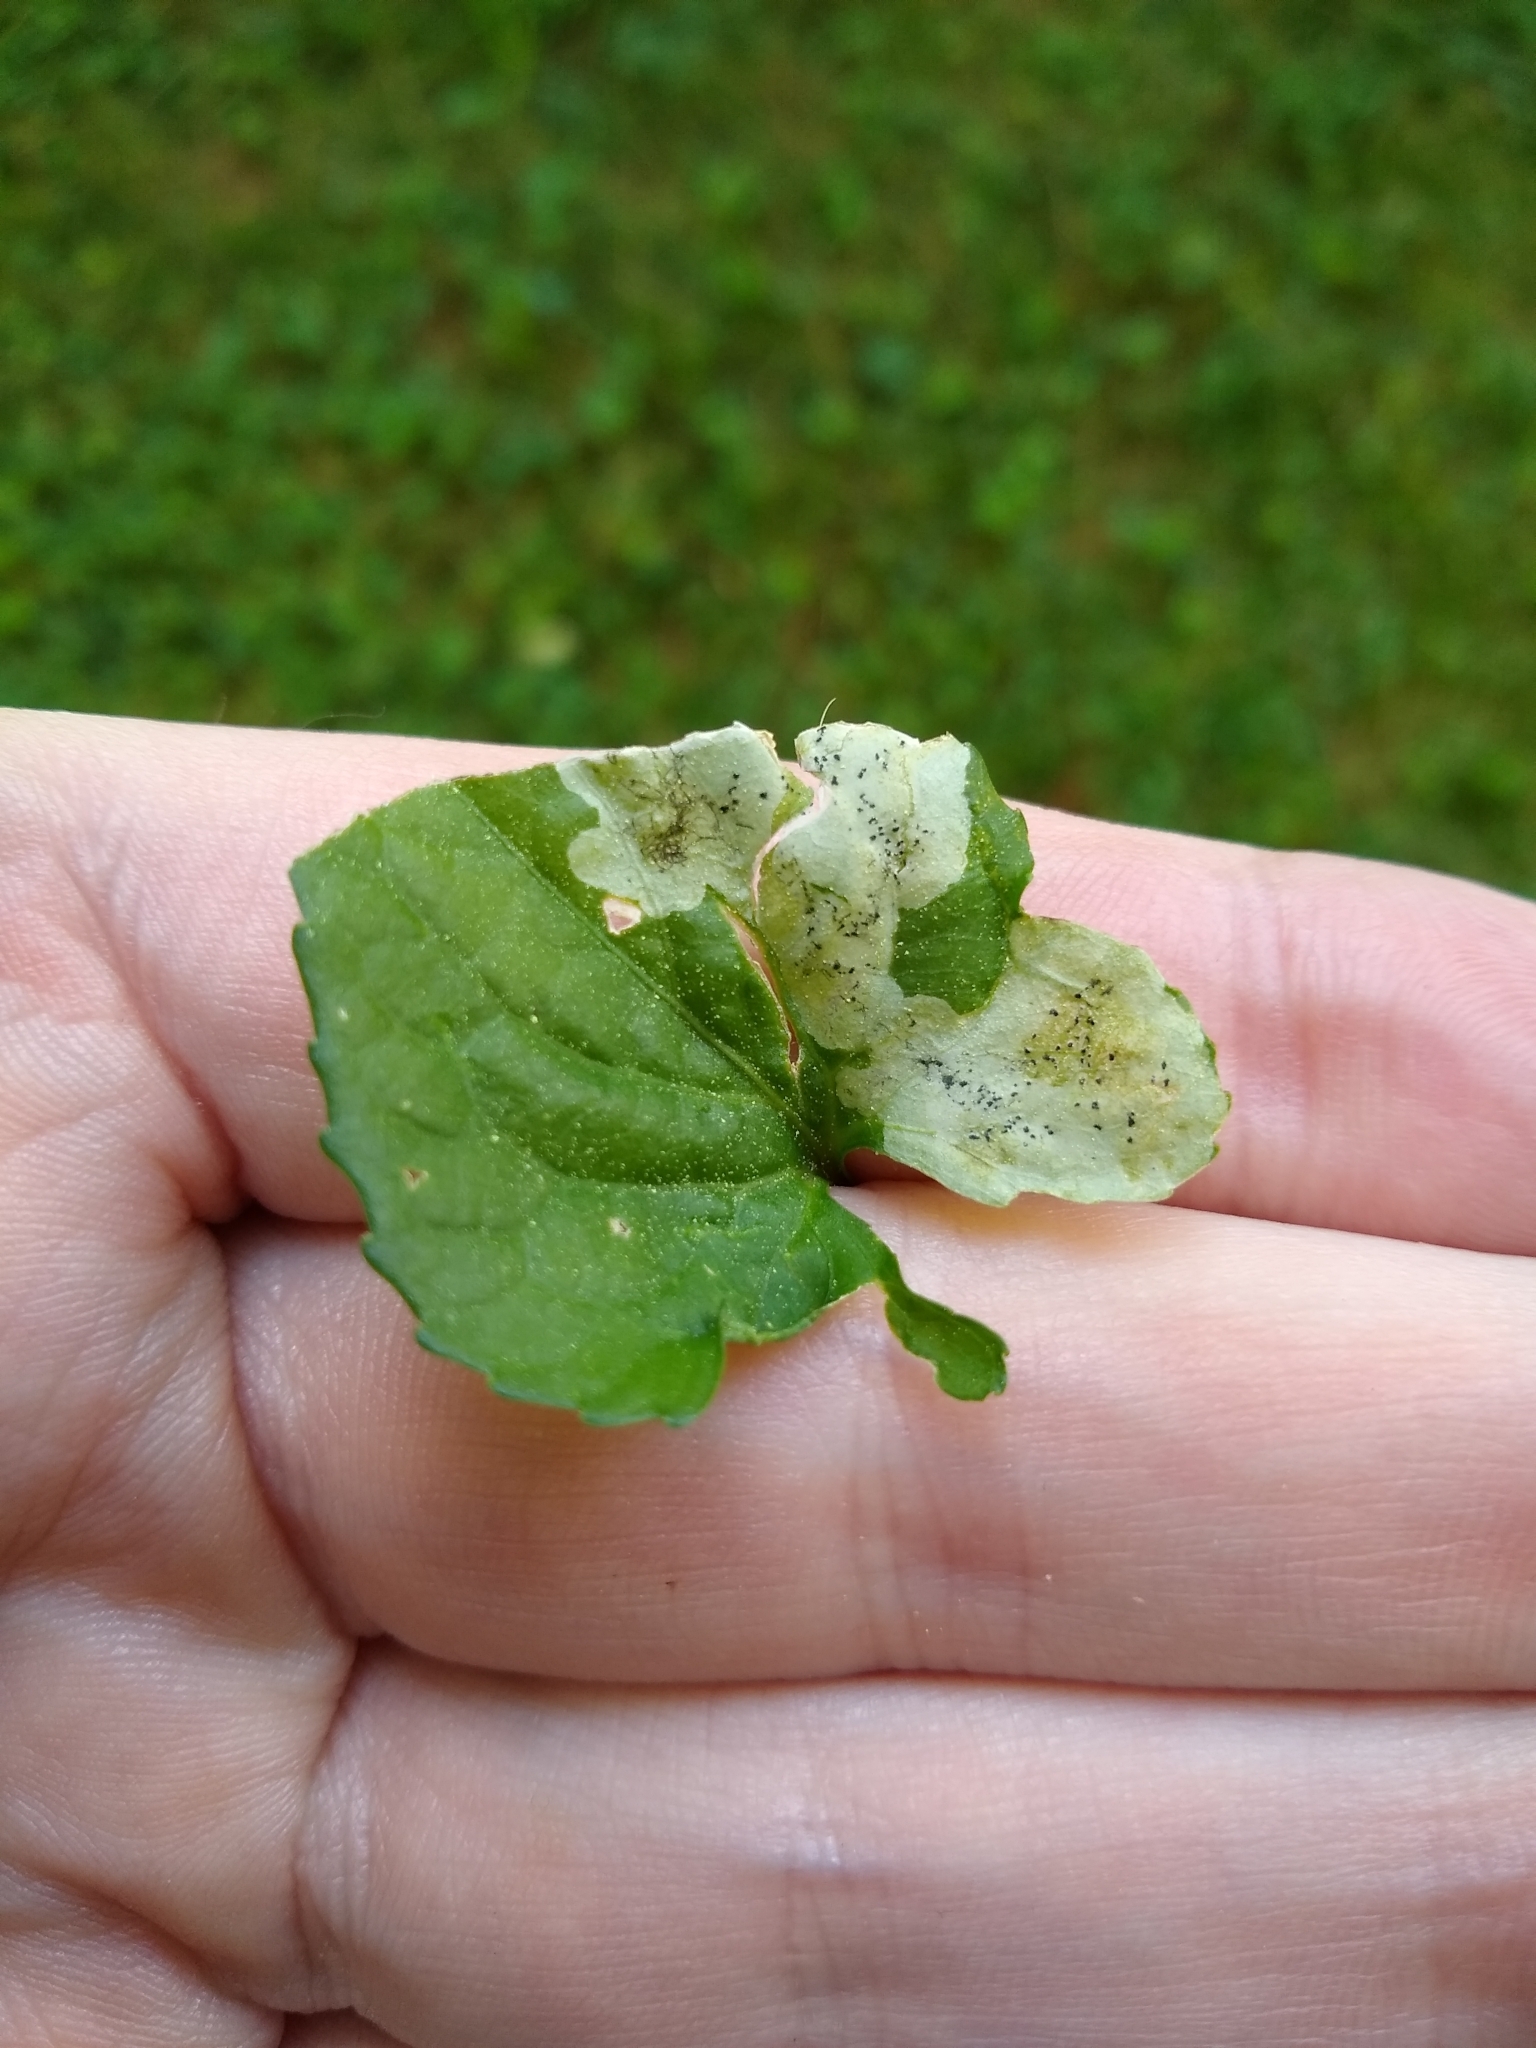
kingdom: Animalia
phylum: Arthropoda
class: Insecta
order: Diptera
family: Agromyzidae
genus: Liriomyza
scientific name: Liriomyza violivora
